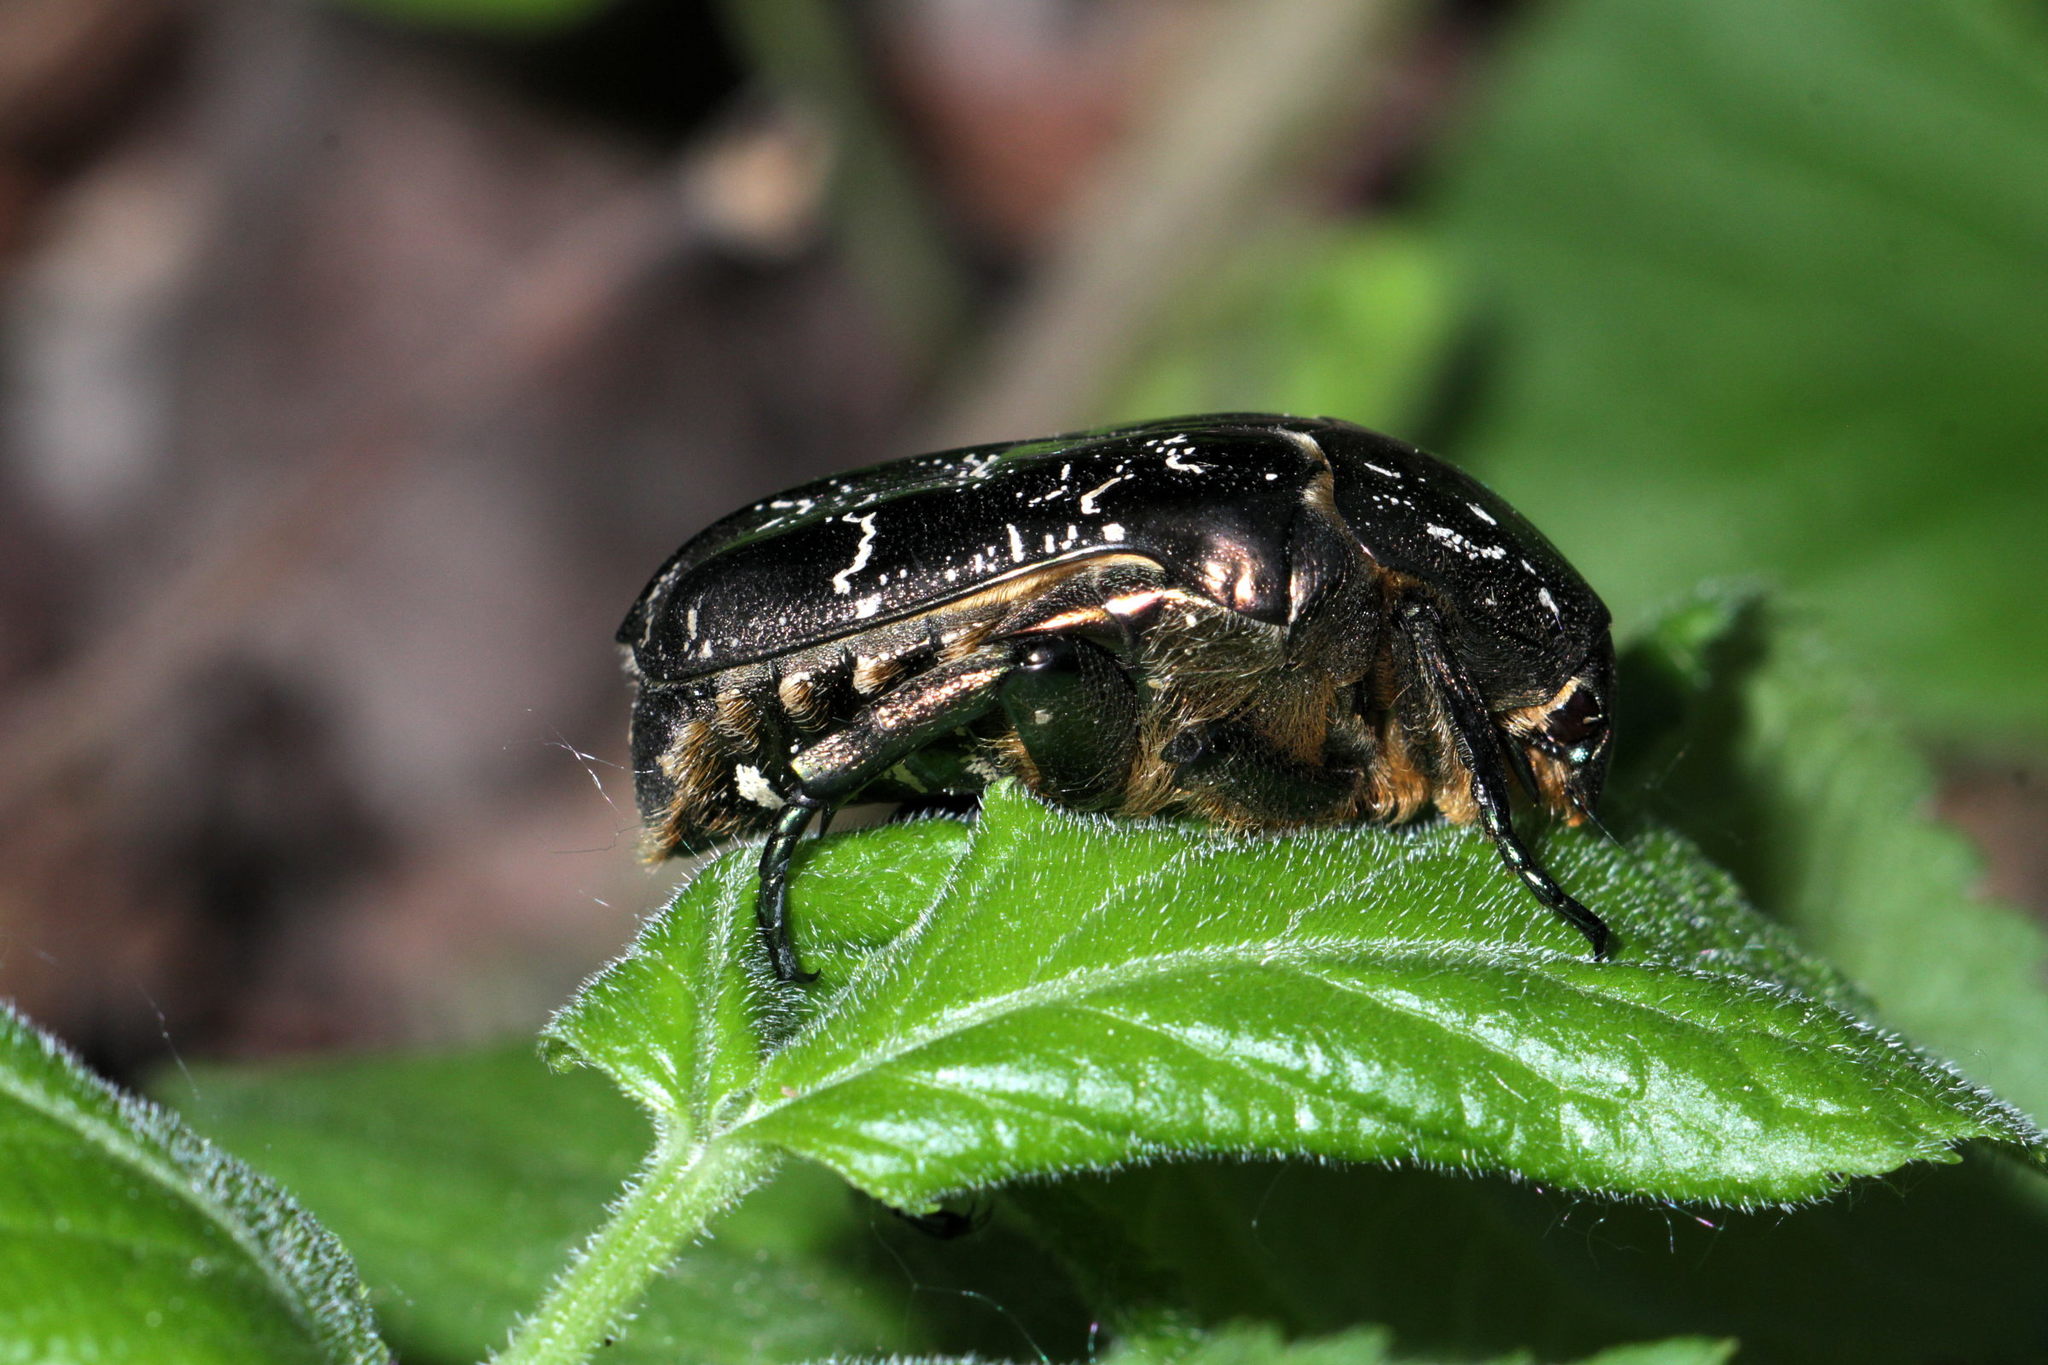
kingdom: Animalia
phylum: Arthropoda
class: Insecta
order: Coleoptera
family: Scarabaeidae
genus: Protaetia
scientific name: Protaetia marmorata
